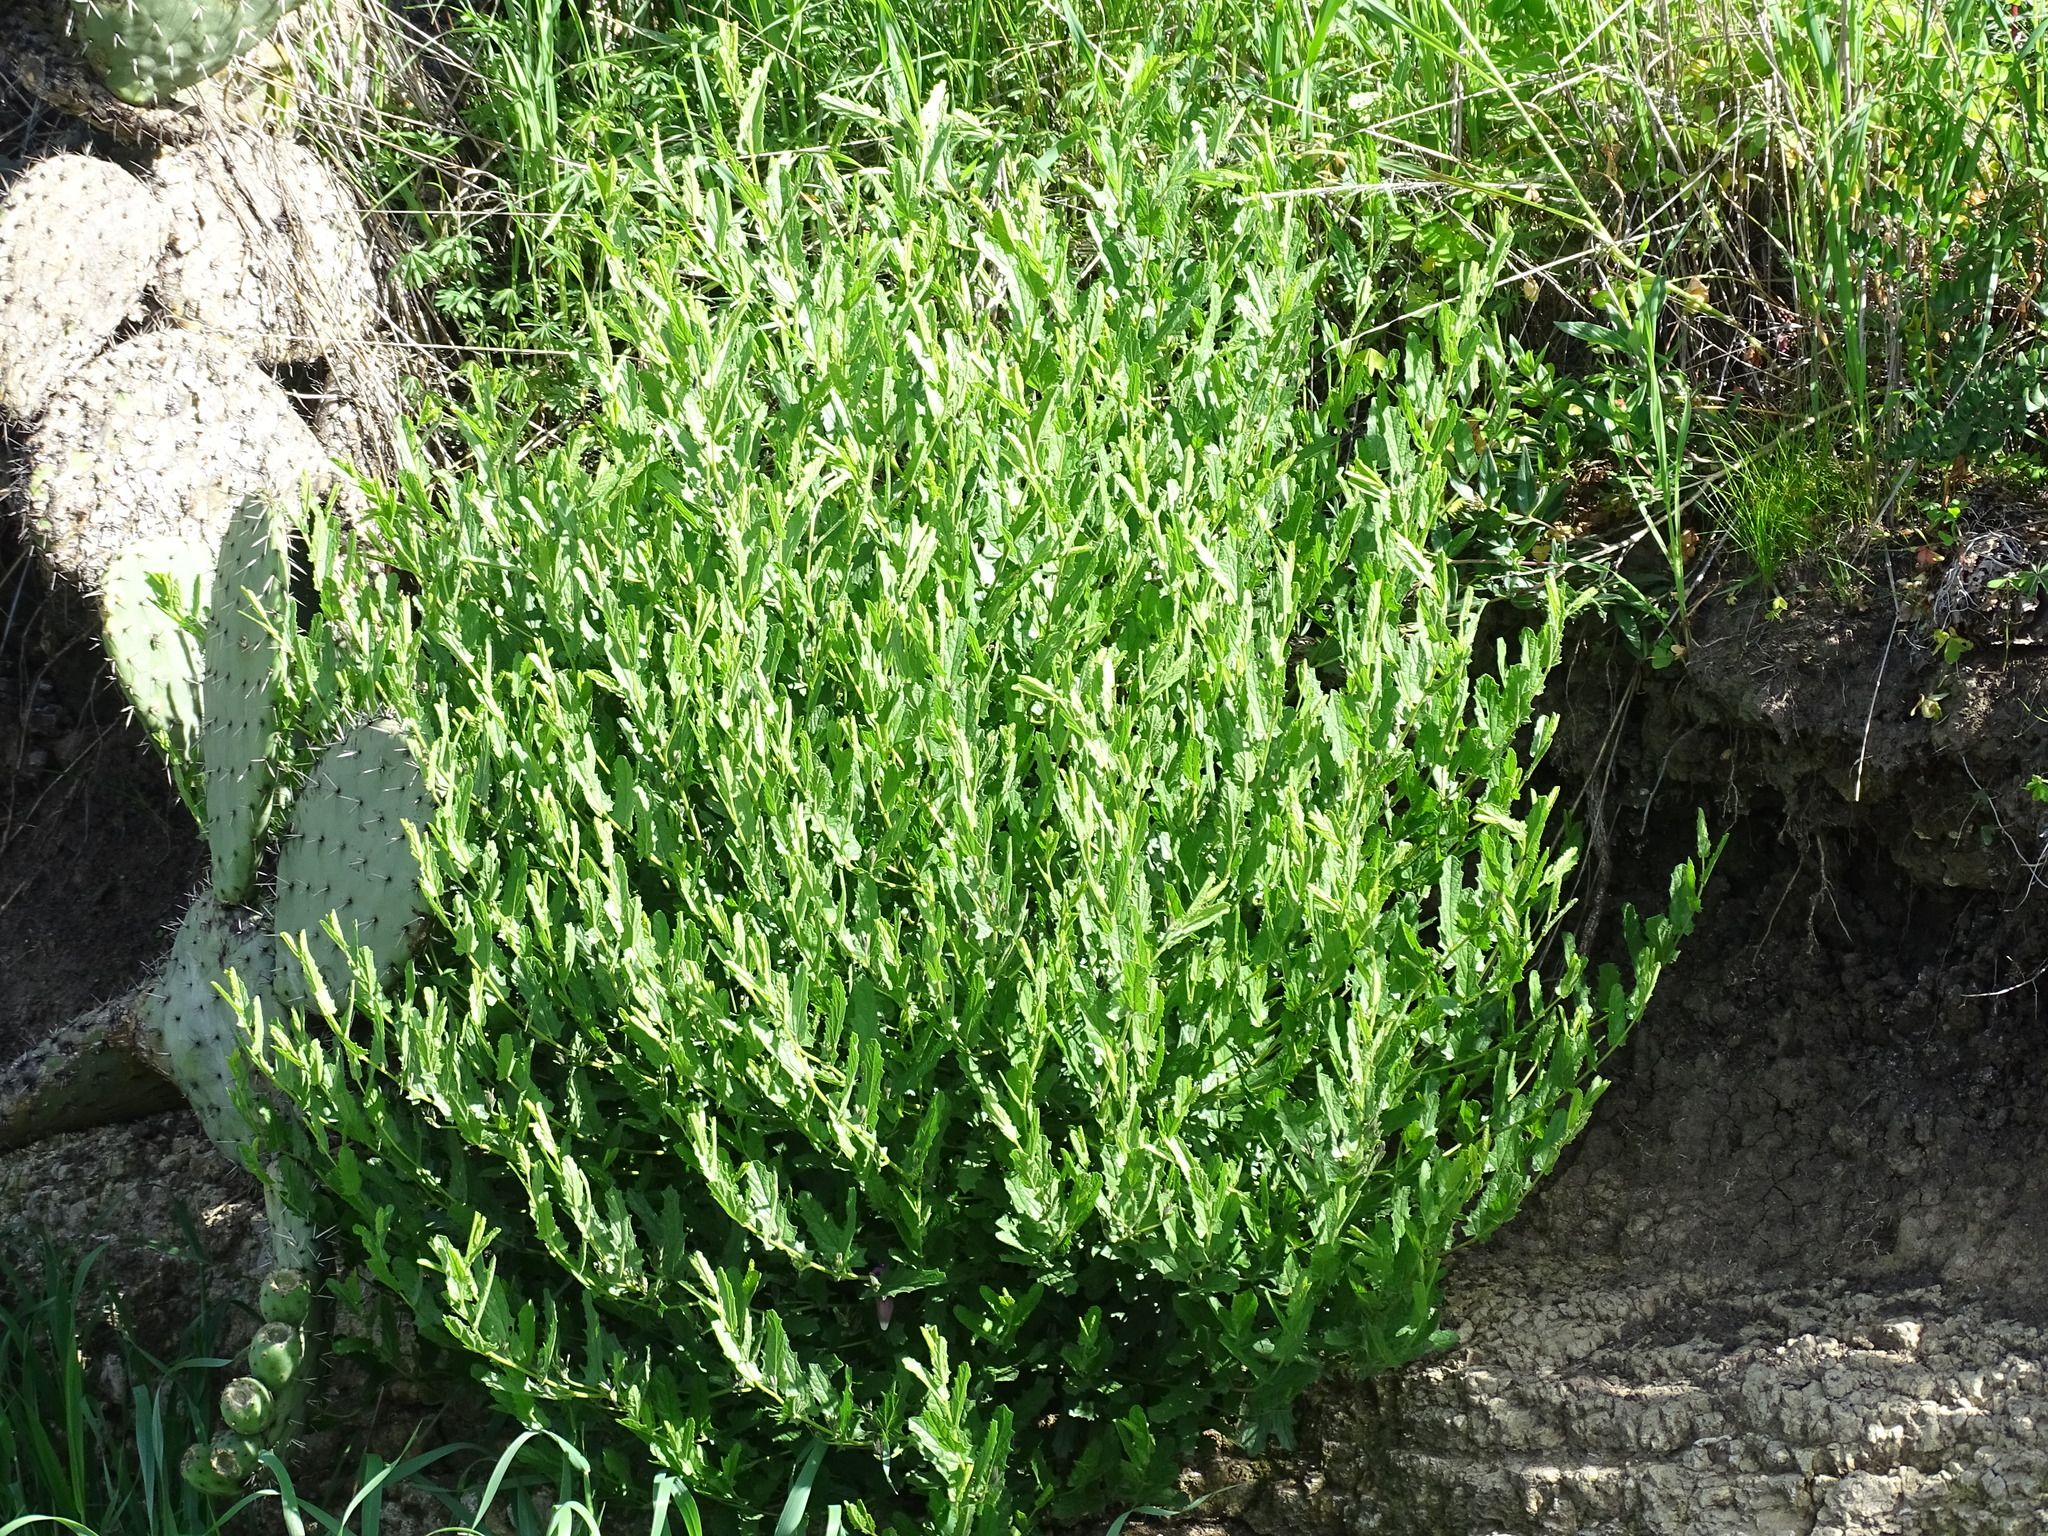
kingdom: Plantae
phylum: Tracheophyta
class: Magnoliopsida
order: Solanales
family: Convolvulaceae
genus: Ipomoea
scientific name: Ipomoea stans
